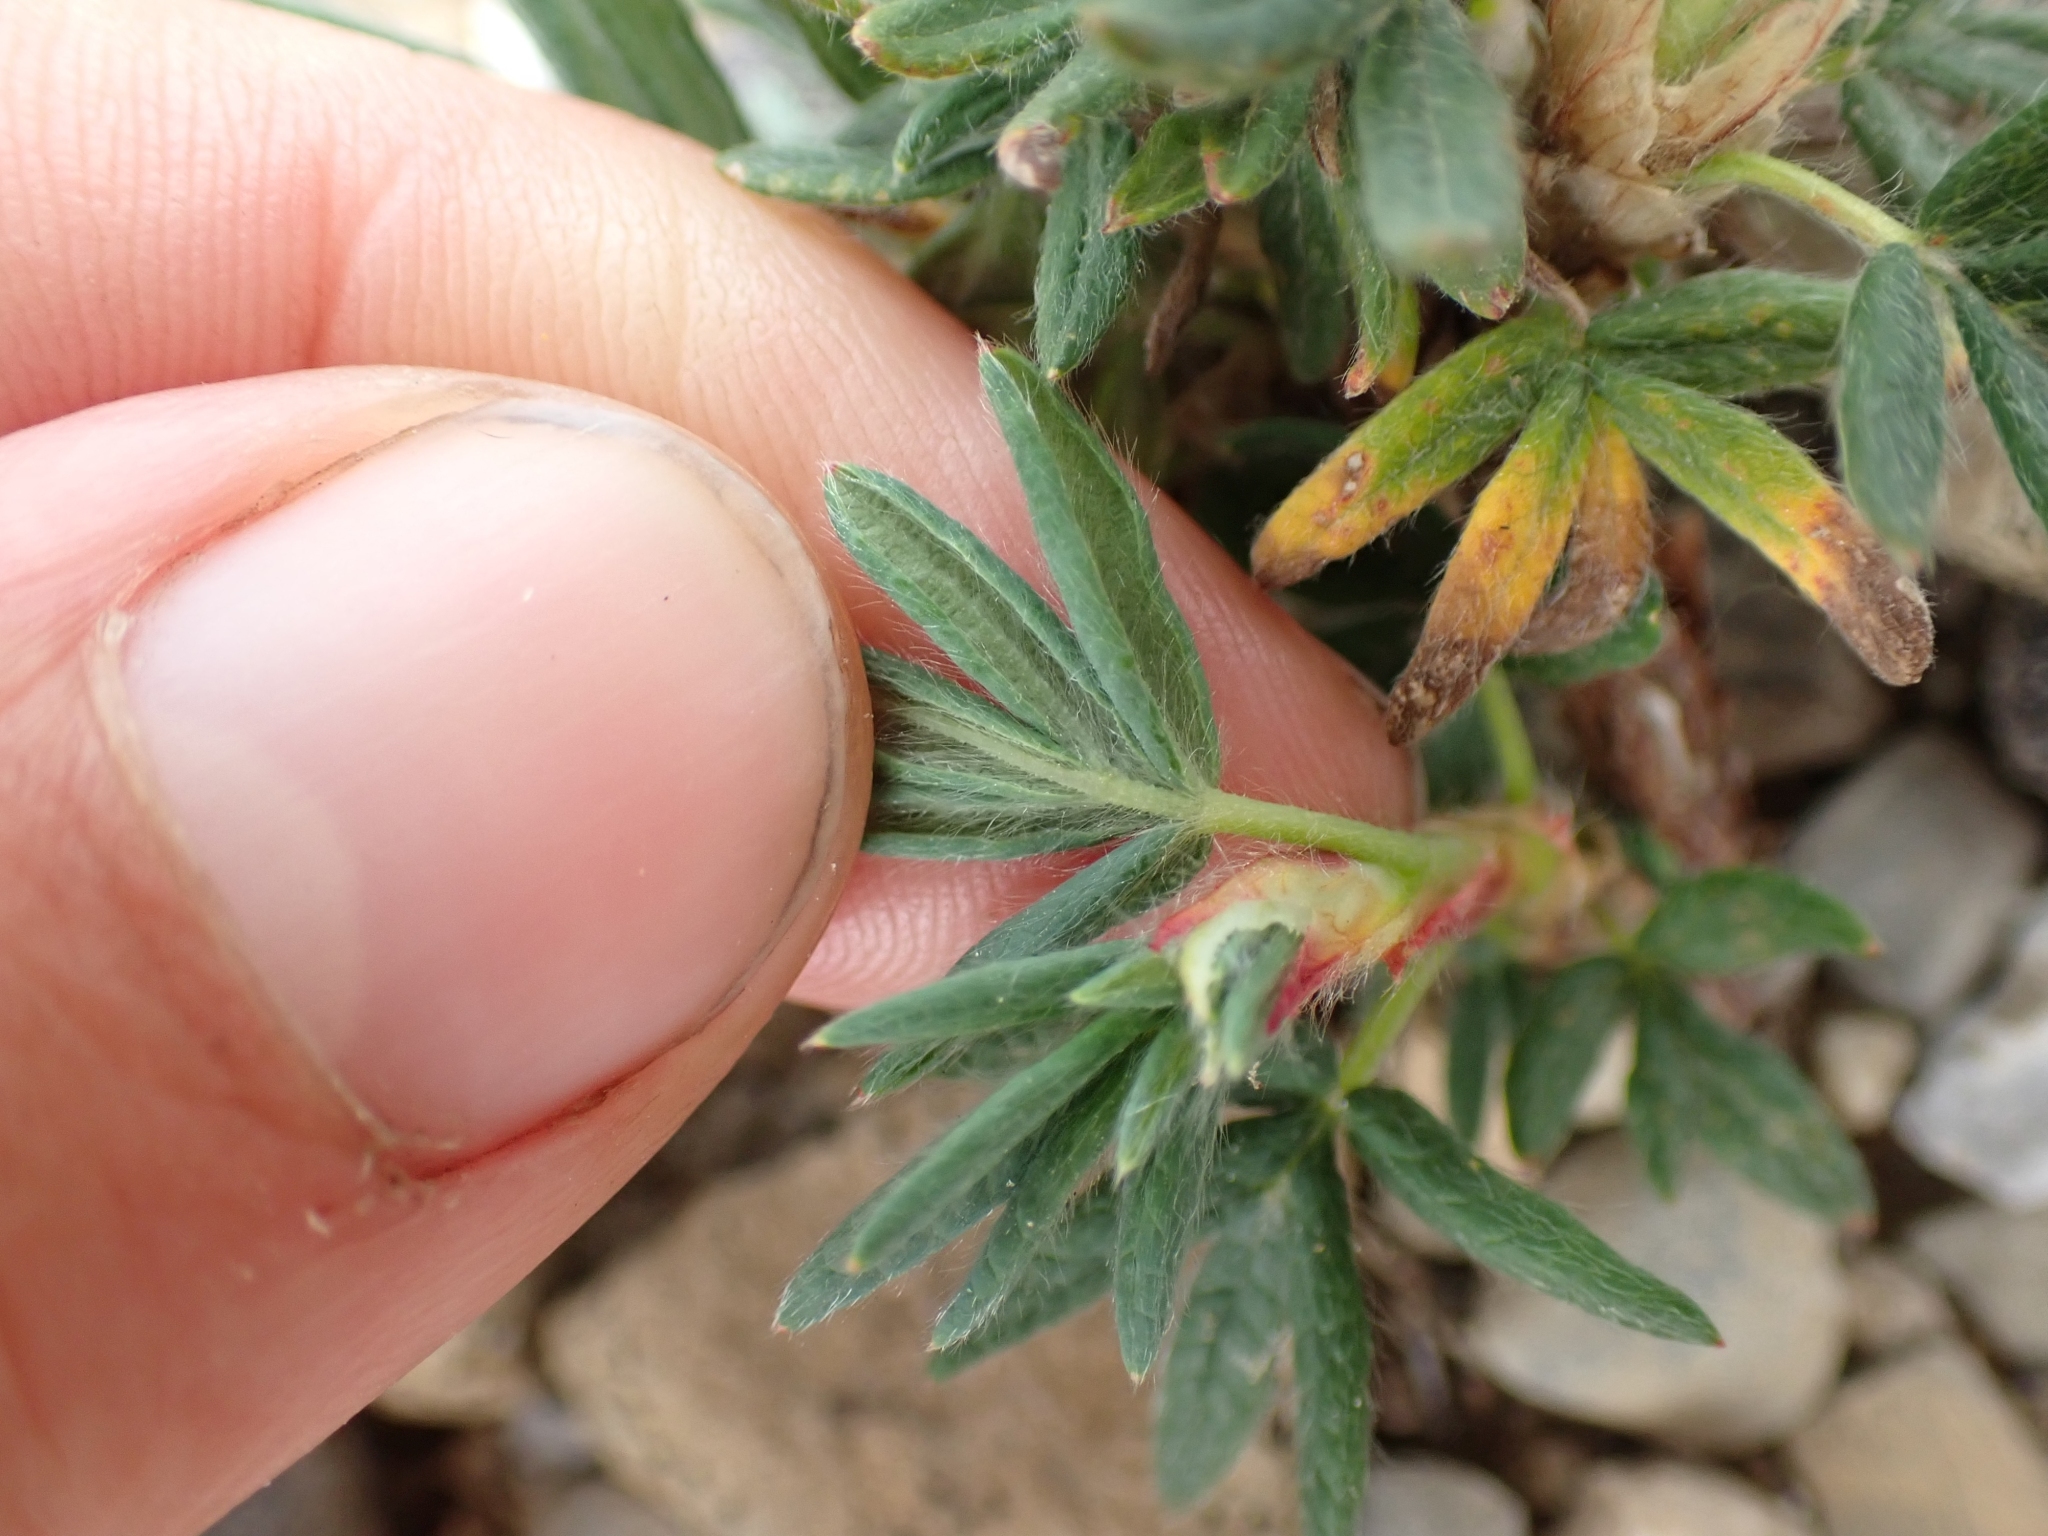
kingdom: Plantae
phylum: Tracheophyta
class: Magnoliopsida
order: Rosales
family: Rosaceae
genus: Dasiphora
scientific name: Dasiphora fruticosa
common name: Shrubby cinquefoil
